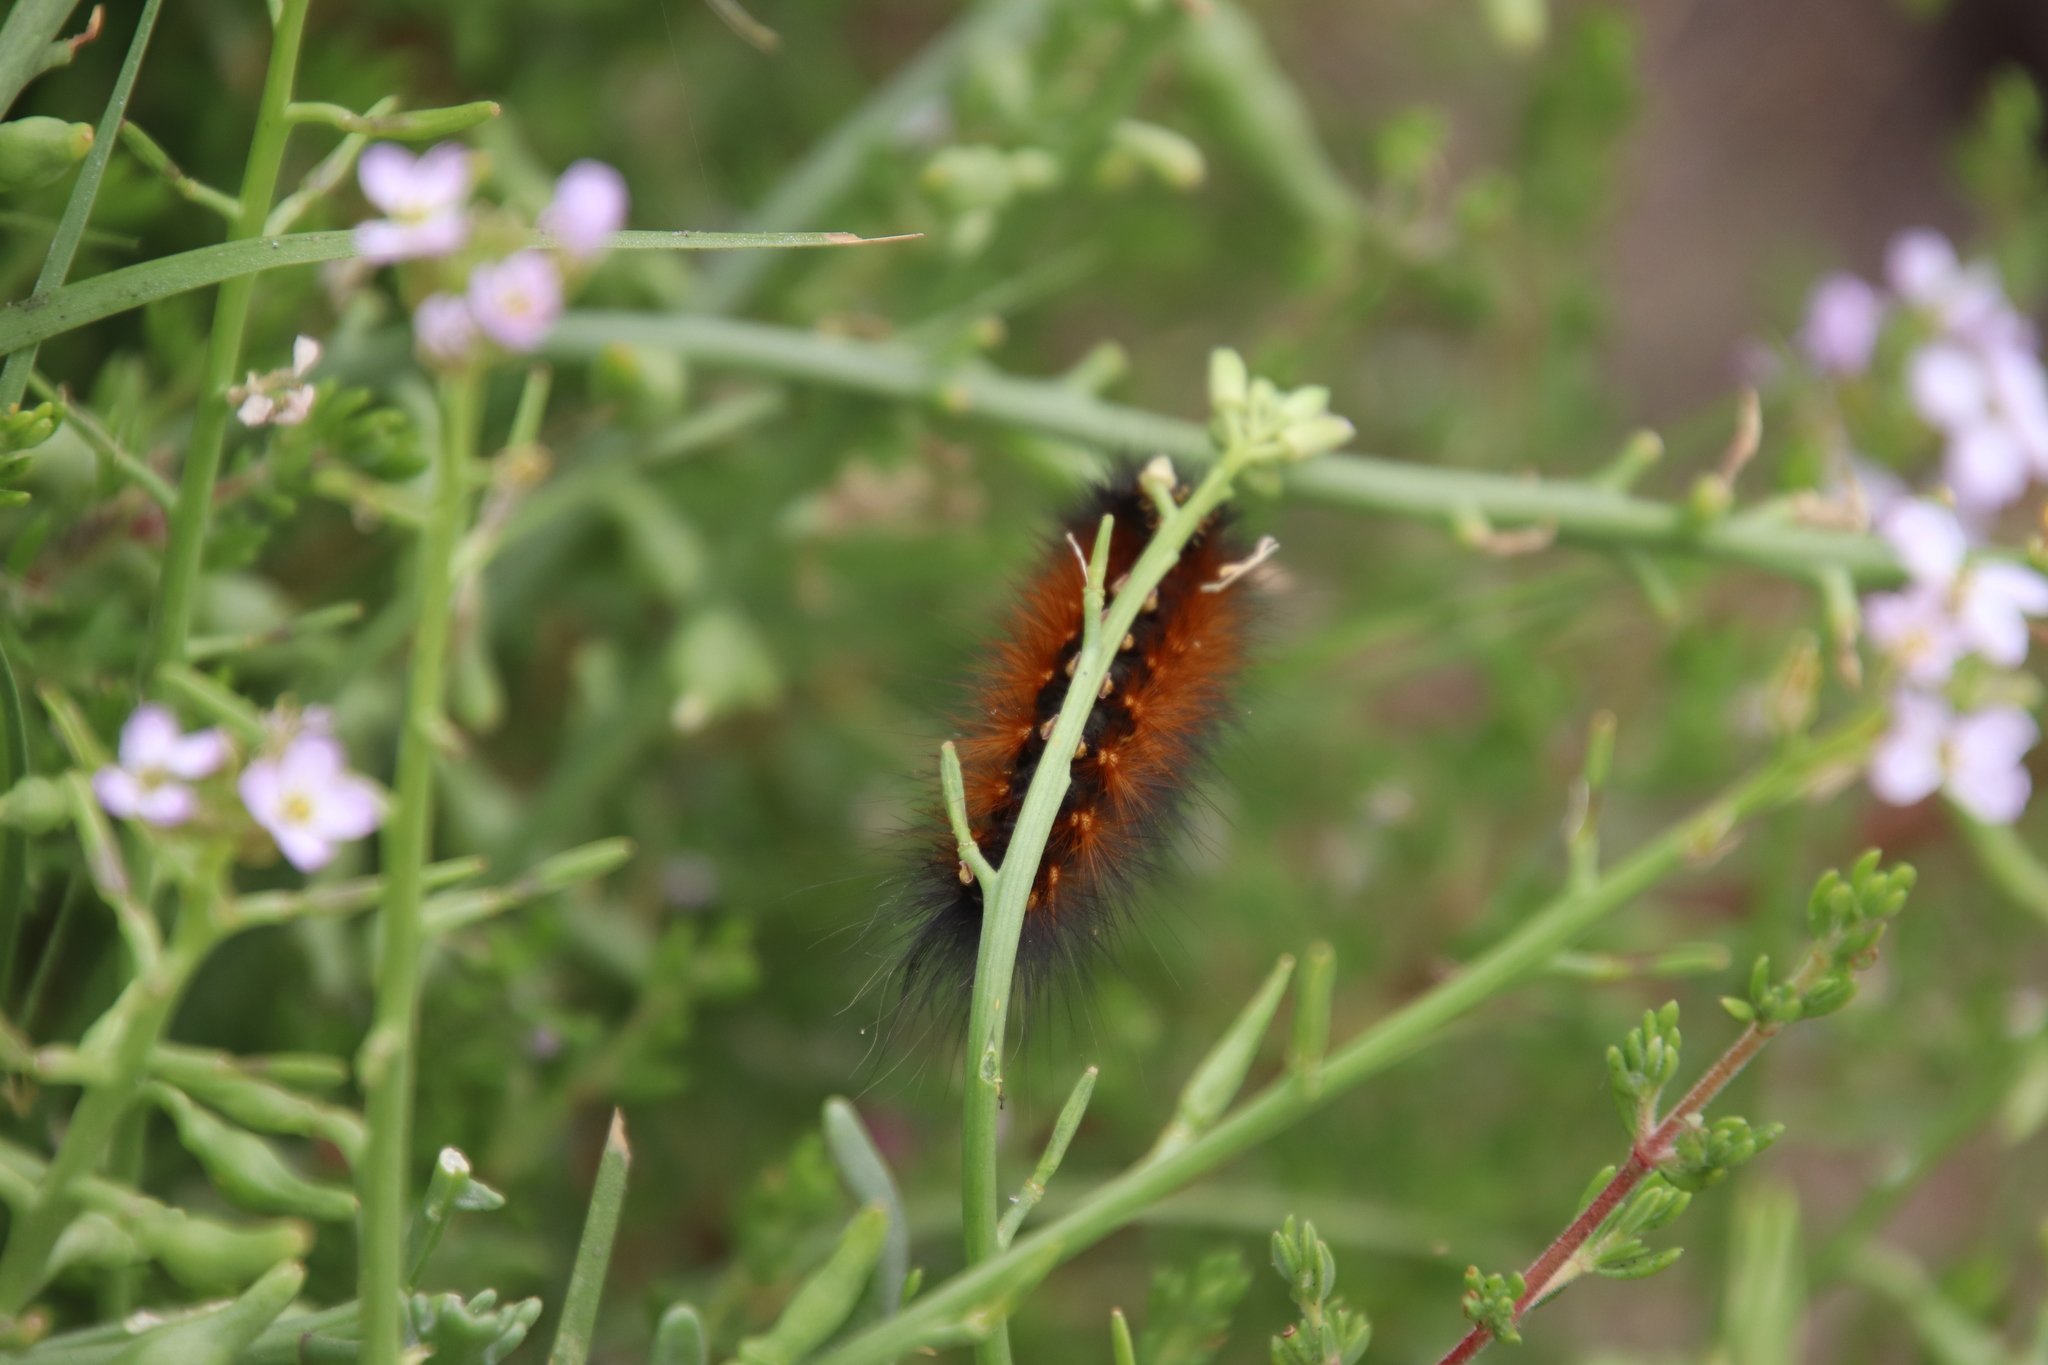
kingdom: Animalia
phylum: Arthropoda
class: Insecta
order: Lepidoptera
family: Erebidae
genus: Estigmene
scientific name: Estigmene acrea
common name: Salt marsh moth
